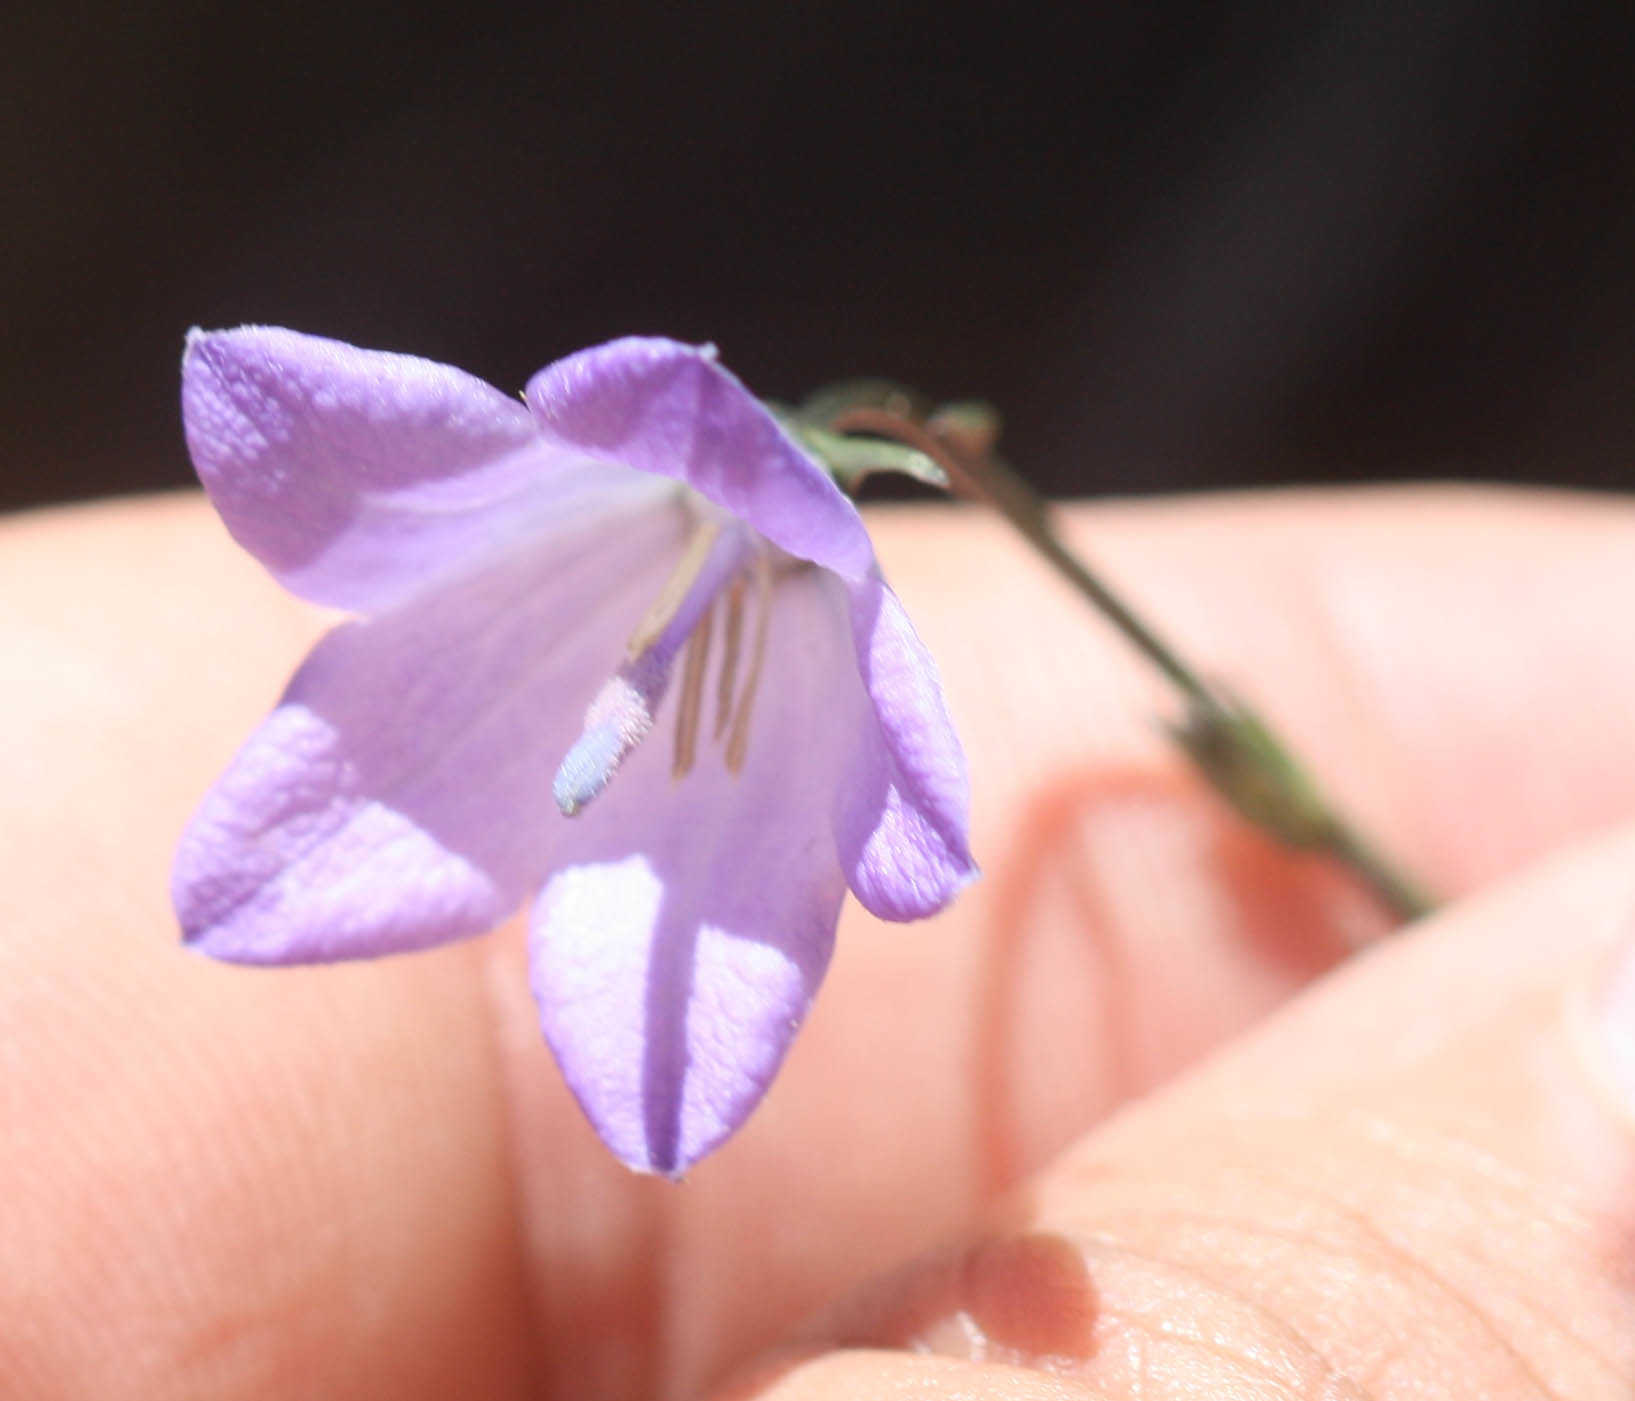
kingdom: Plantae
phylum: Tracheophyta
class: Magnoliopsida
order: Asterales
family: Campanulaceae
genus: Campanula
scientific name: Campanula petiolata
